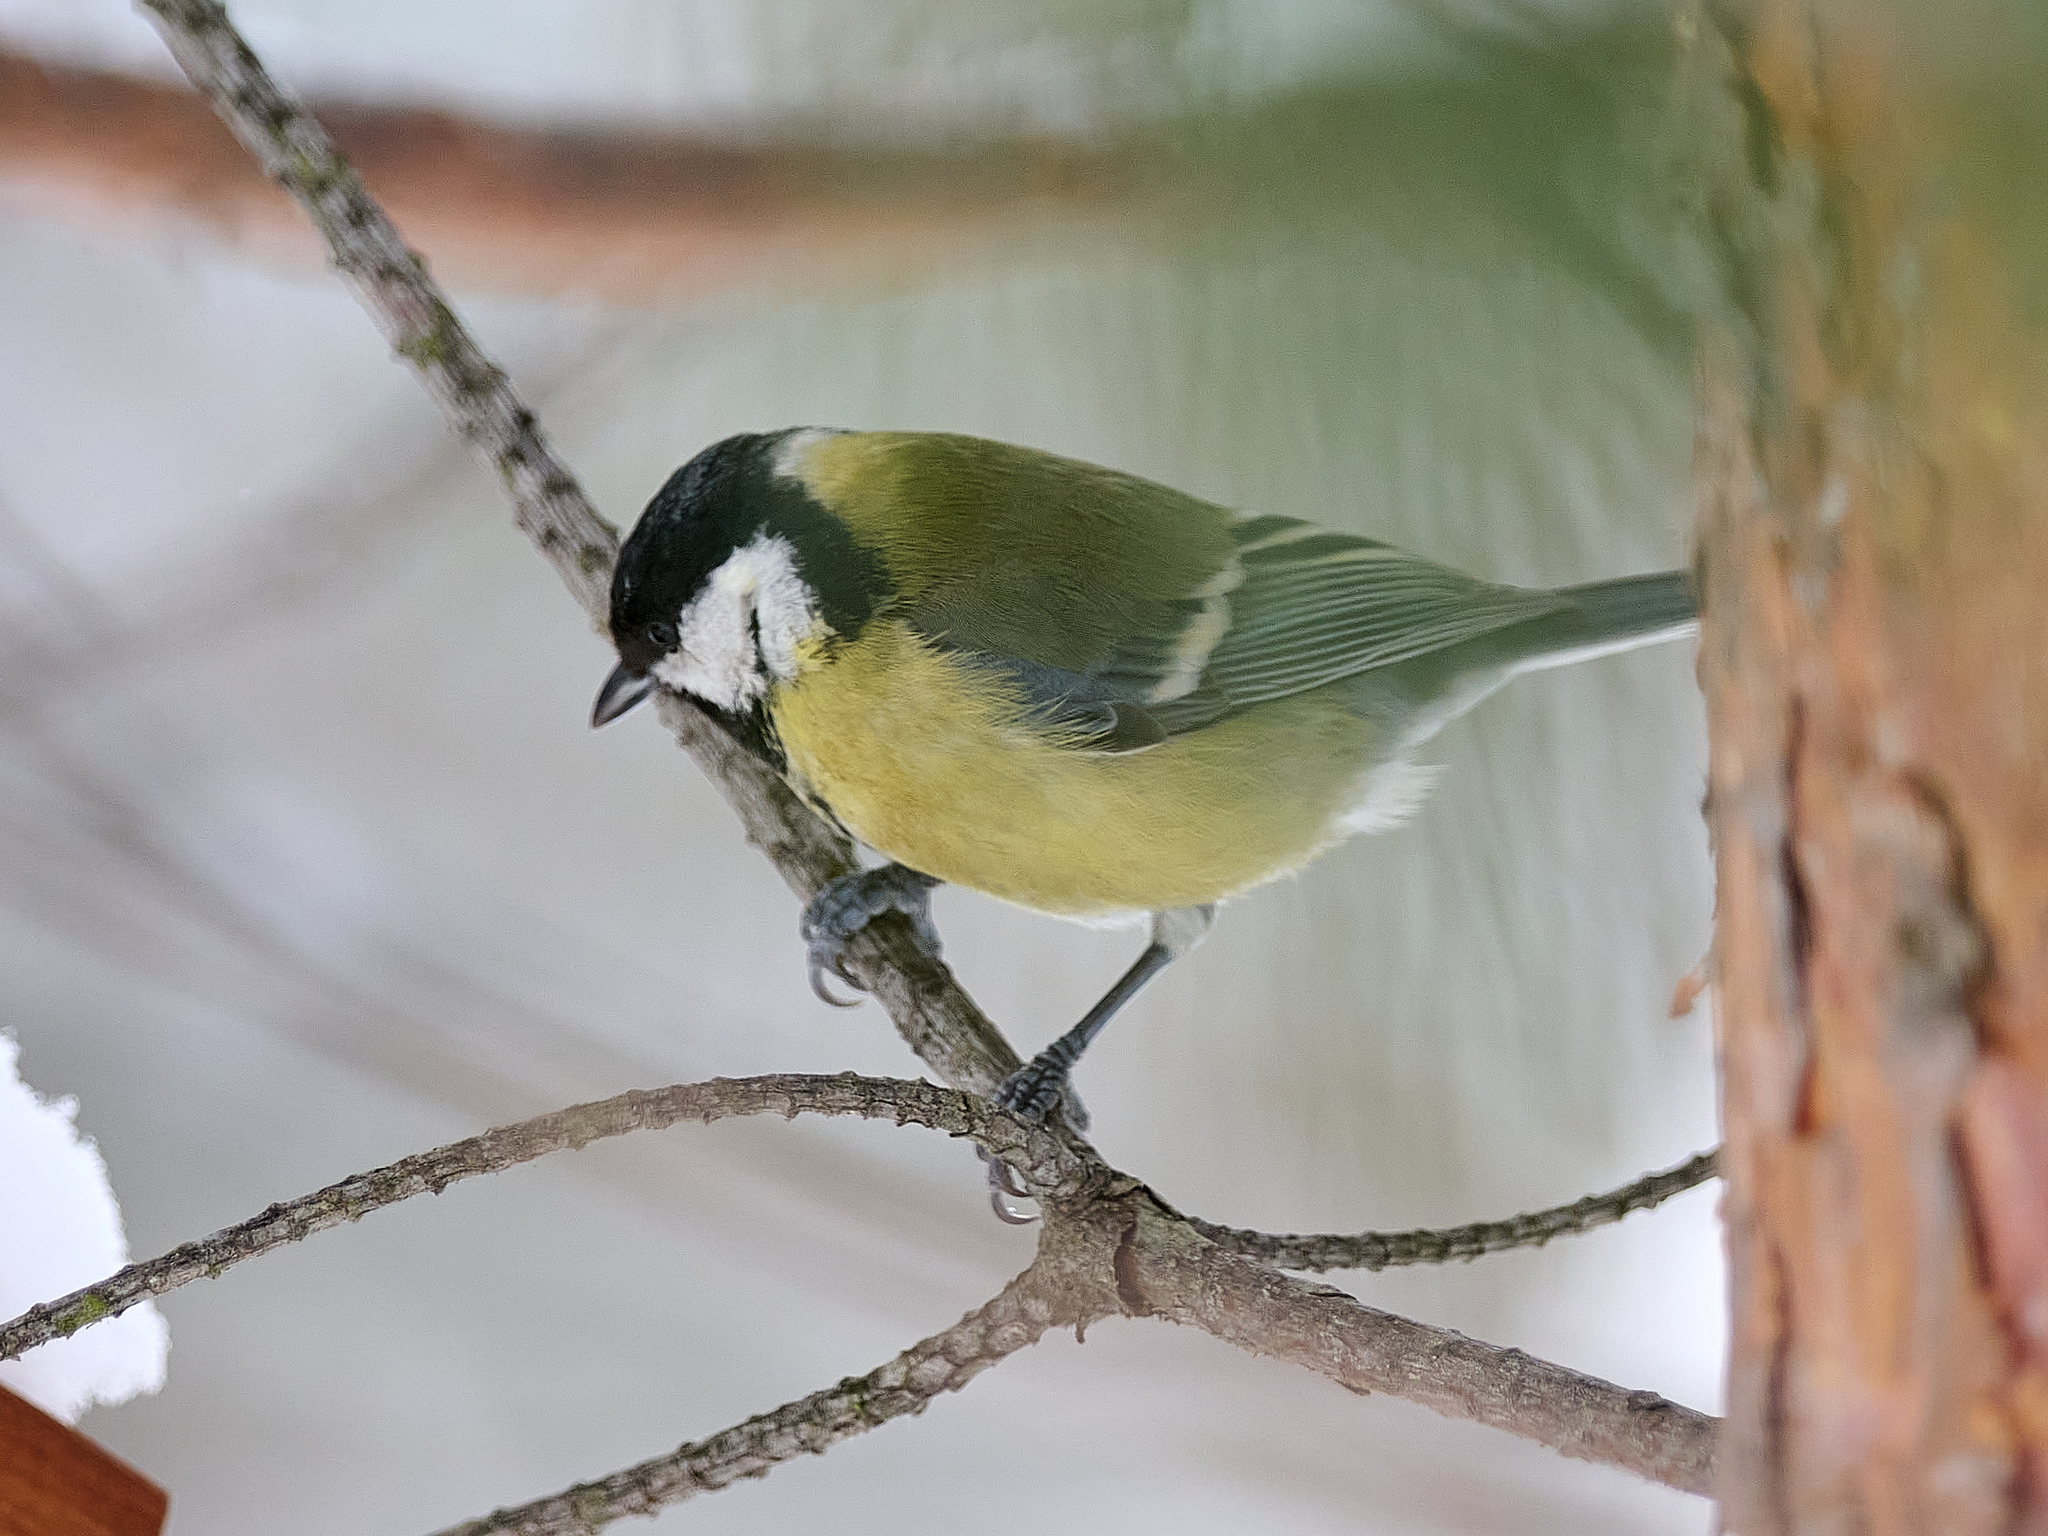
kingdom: Animalia
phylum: Chordata
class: Aves
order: Passeriformes
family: Paridae
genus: Parus
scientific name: Parus major
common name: Great tit
